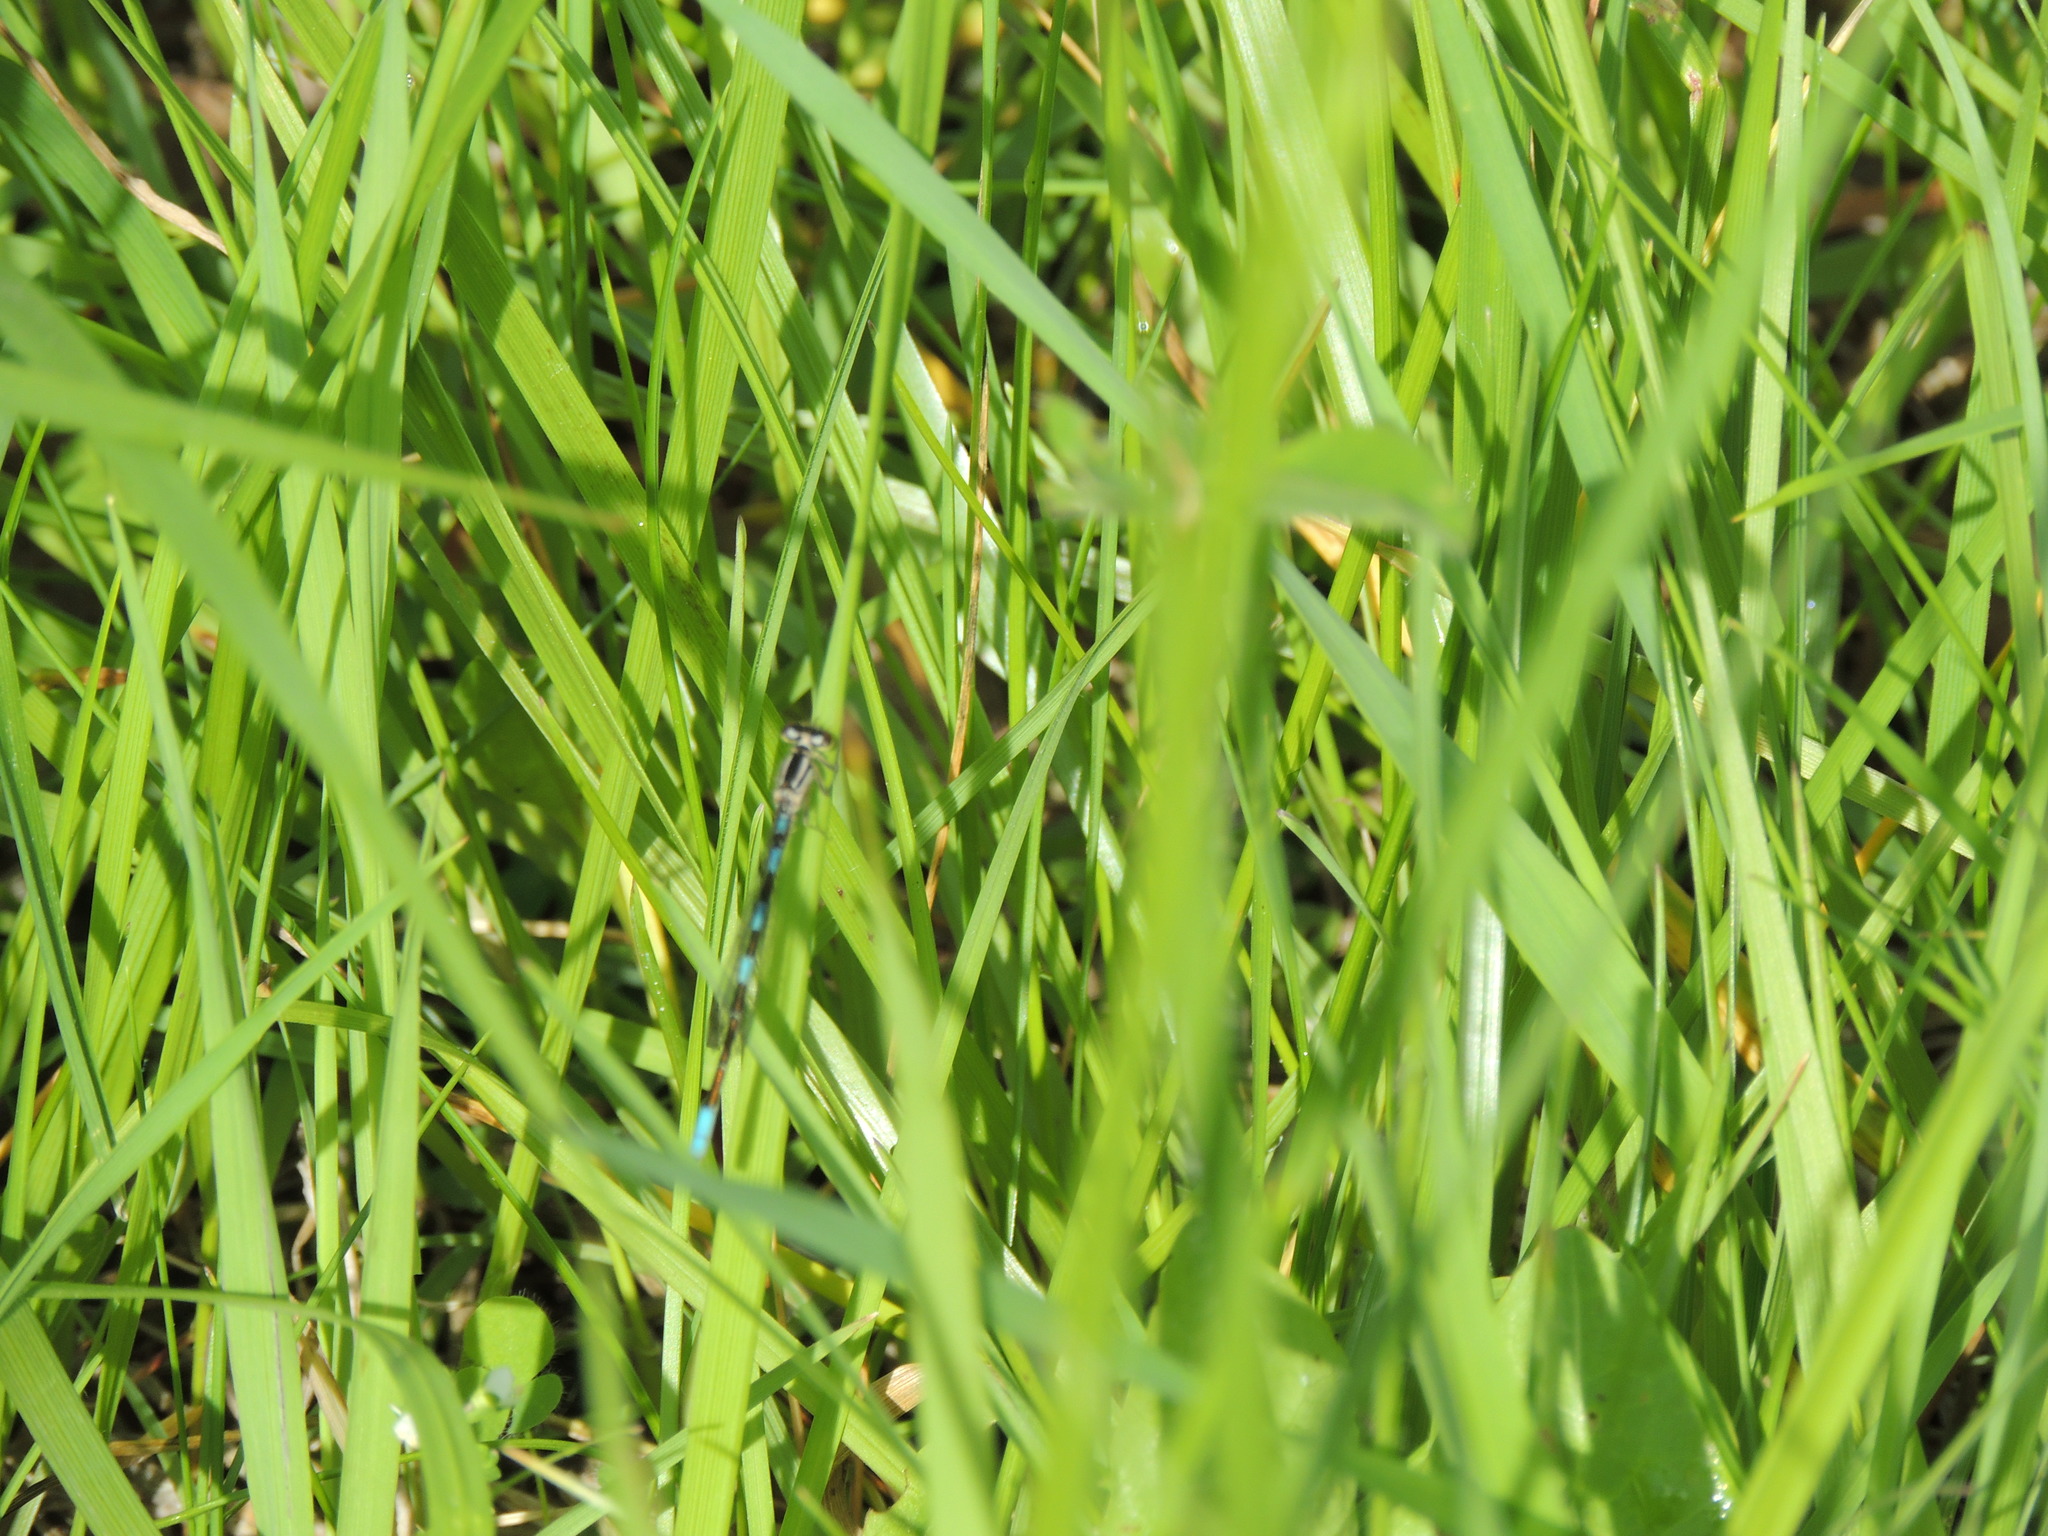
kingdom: Animalia
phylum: Arthropoda
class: Insecta
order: Odonata
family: Coenagrionidae
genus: Enallagma
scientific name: Enallagma carunculatum
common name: Tule bluet
